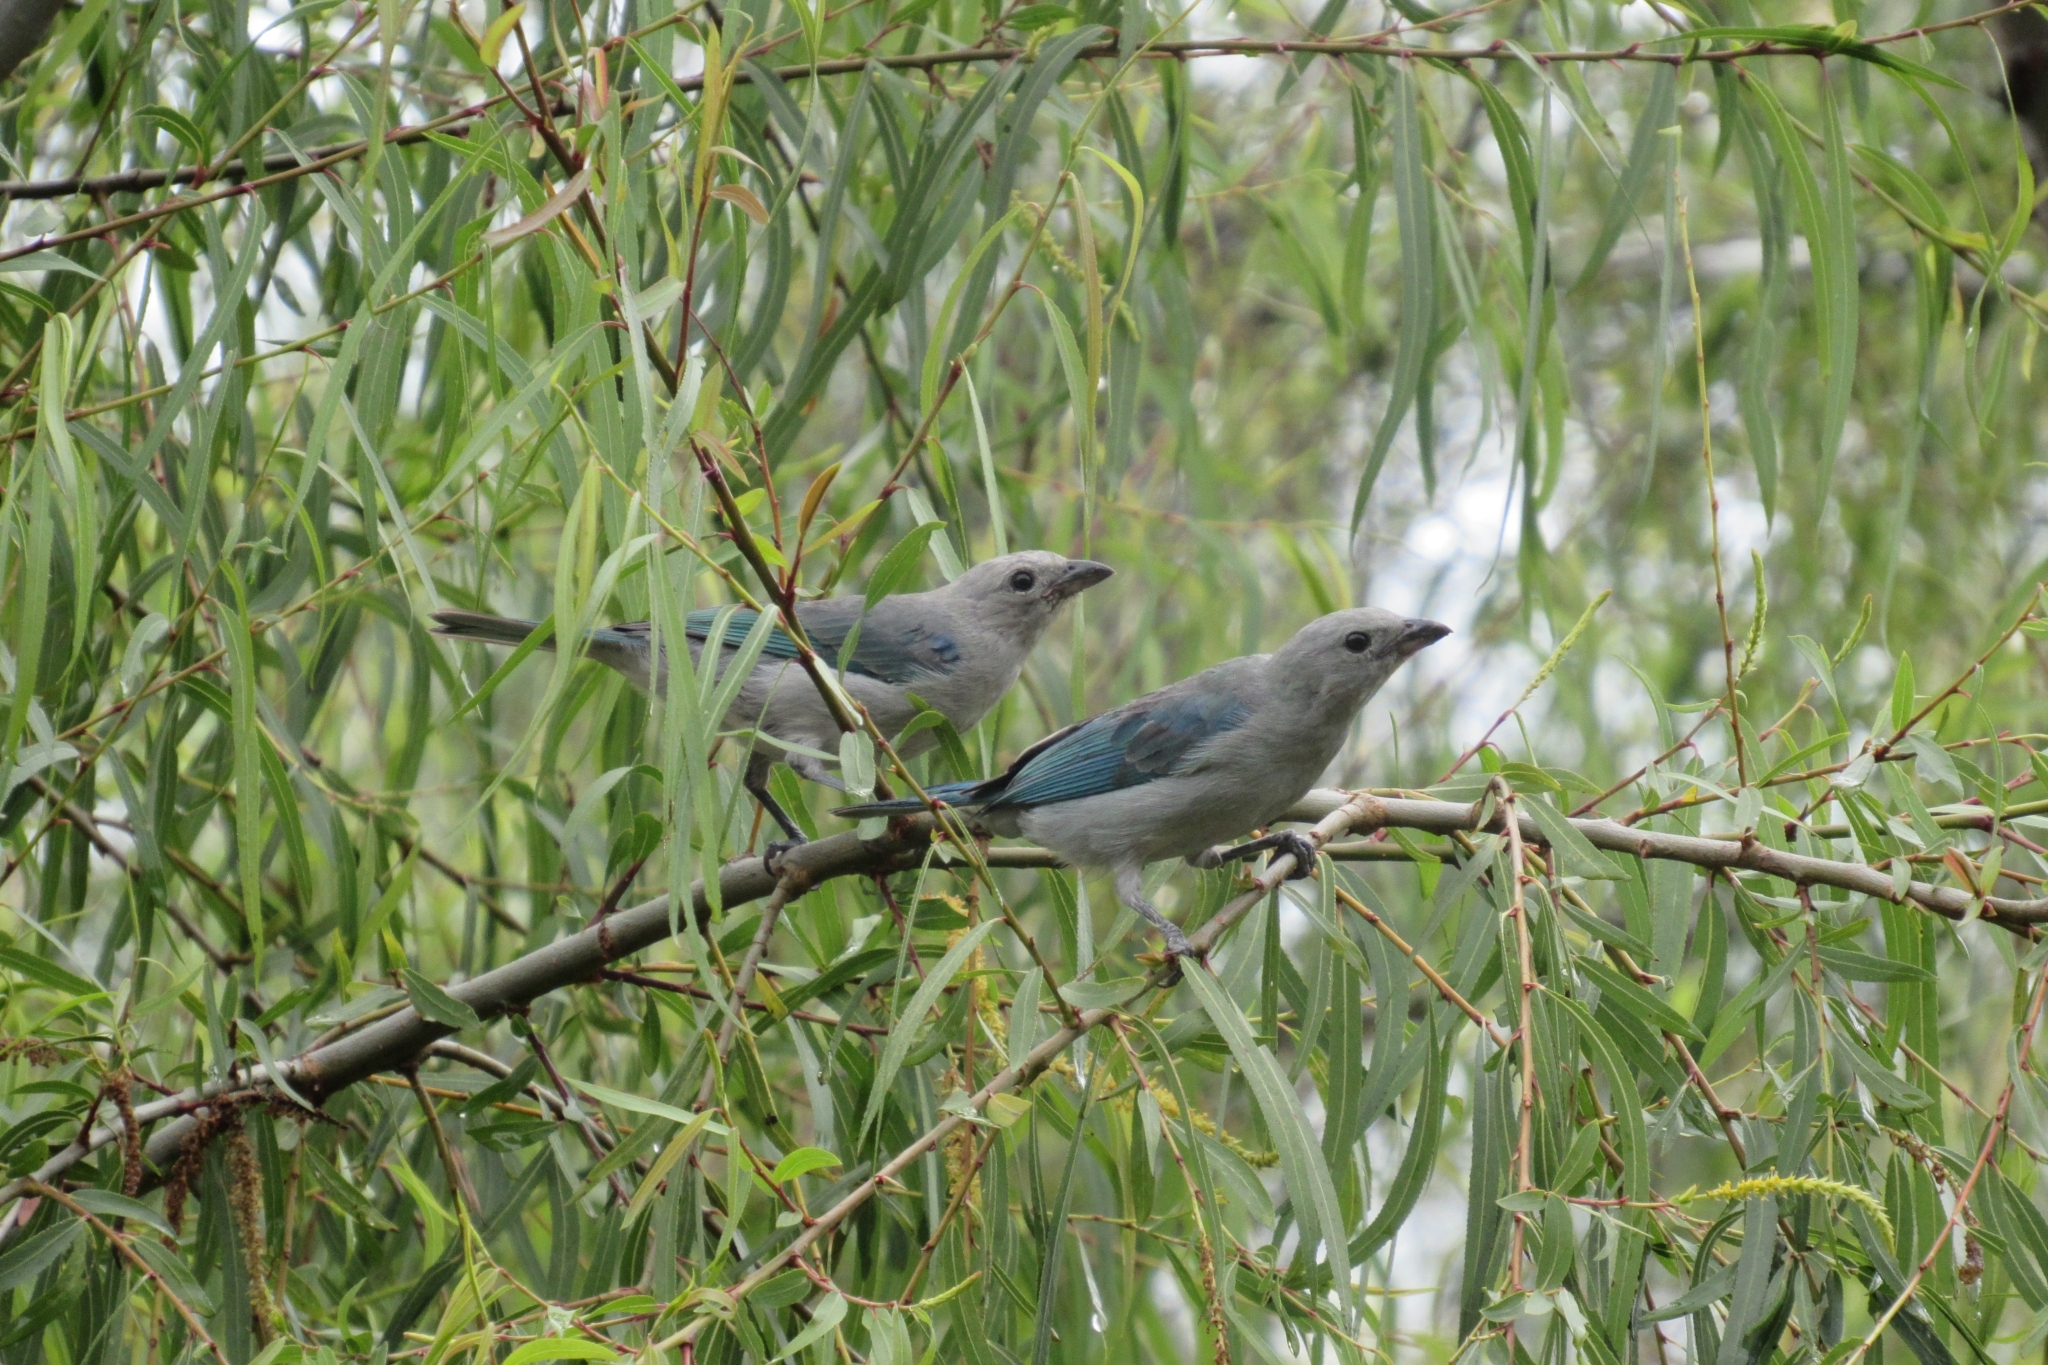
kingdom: Animalia
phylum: Chordata
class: Aves
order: Passeriformes
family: Thraupidae
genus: Thraupis
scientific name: Thraupis episcopus
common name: Blue-grey tanager
